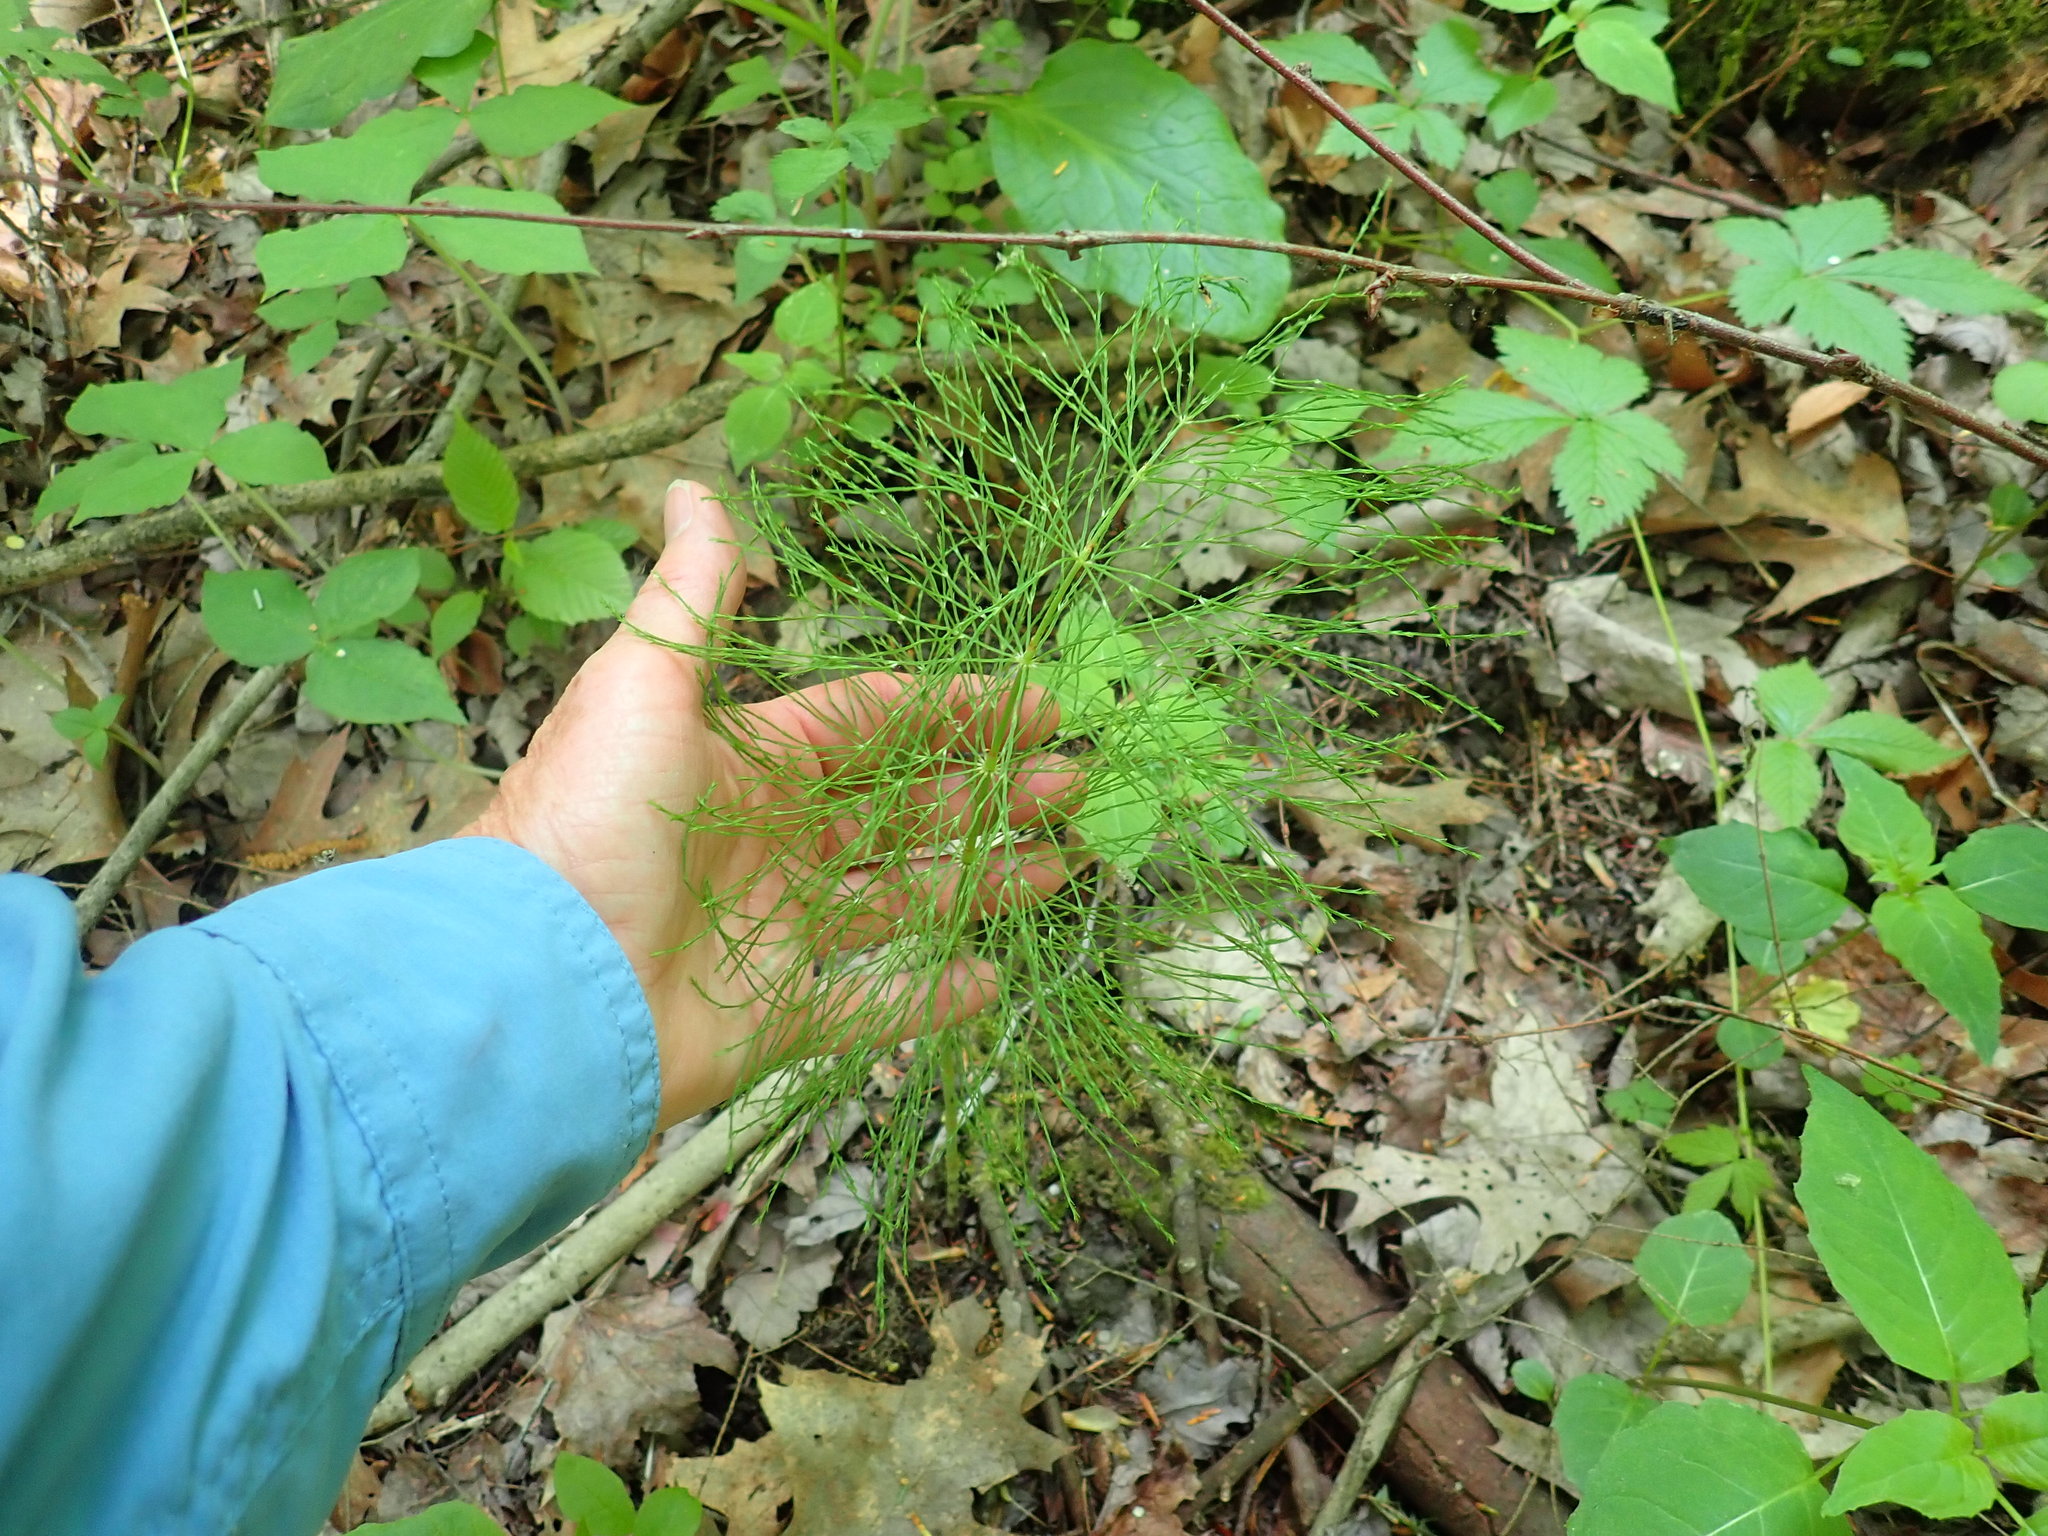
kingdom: Plantae
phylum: Tracheophyta
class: Polypodiopsida
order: Equisetales
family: Equisetaceae
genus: Equisetum
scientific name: Equisetum sylvaticum
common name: Wood horsetail
